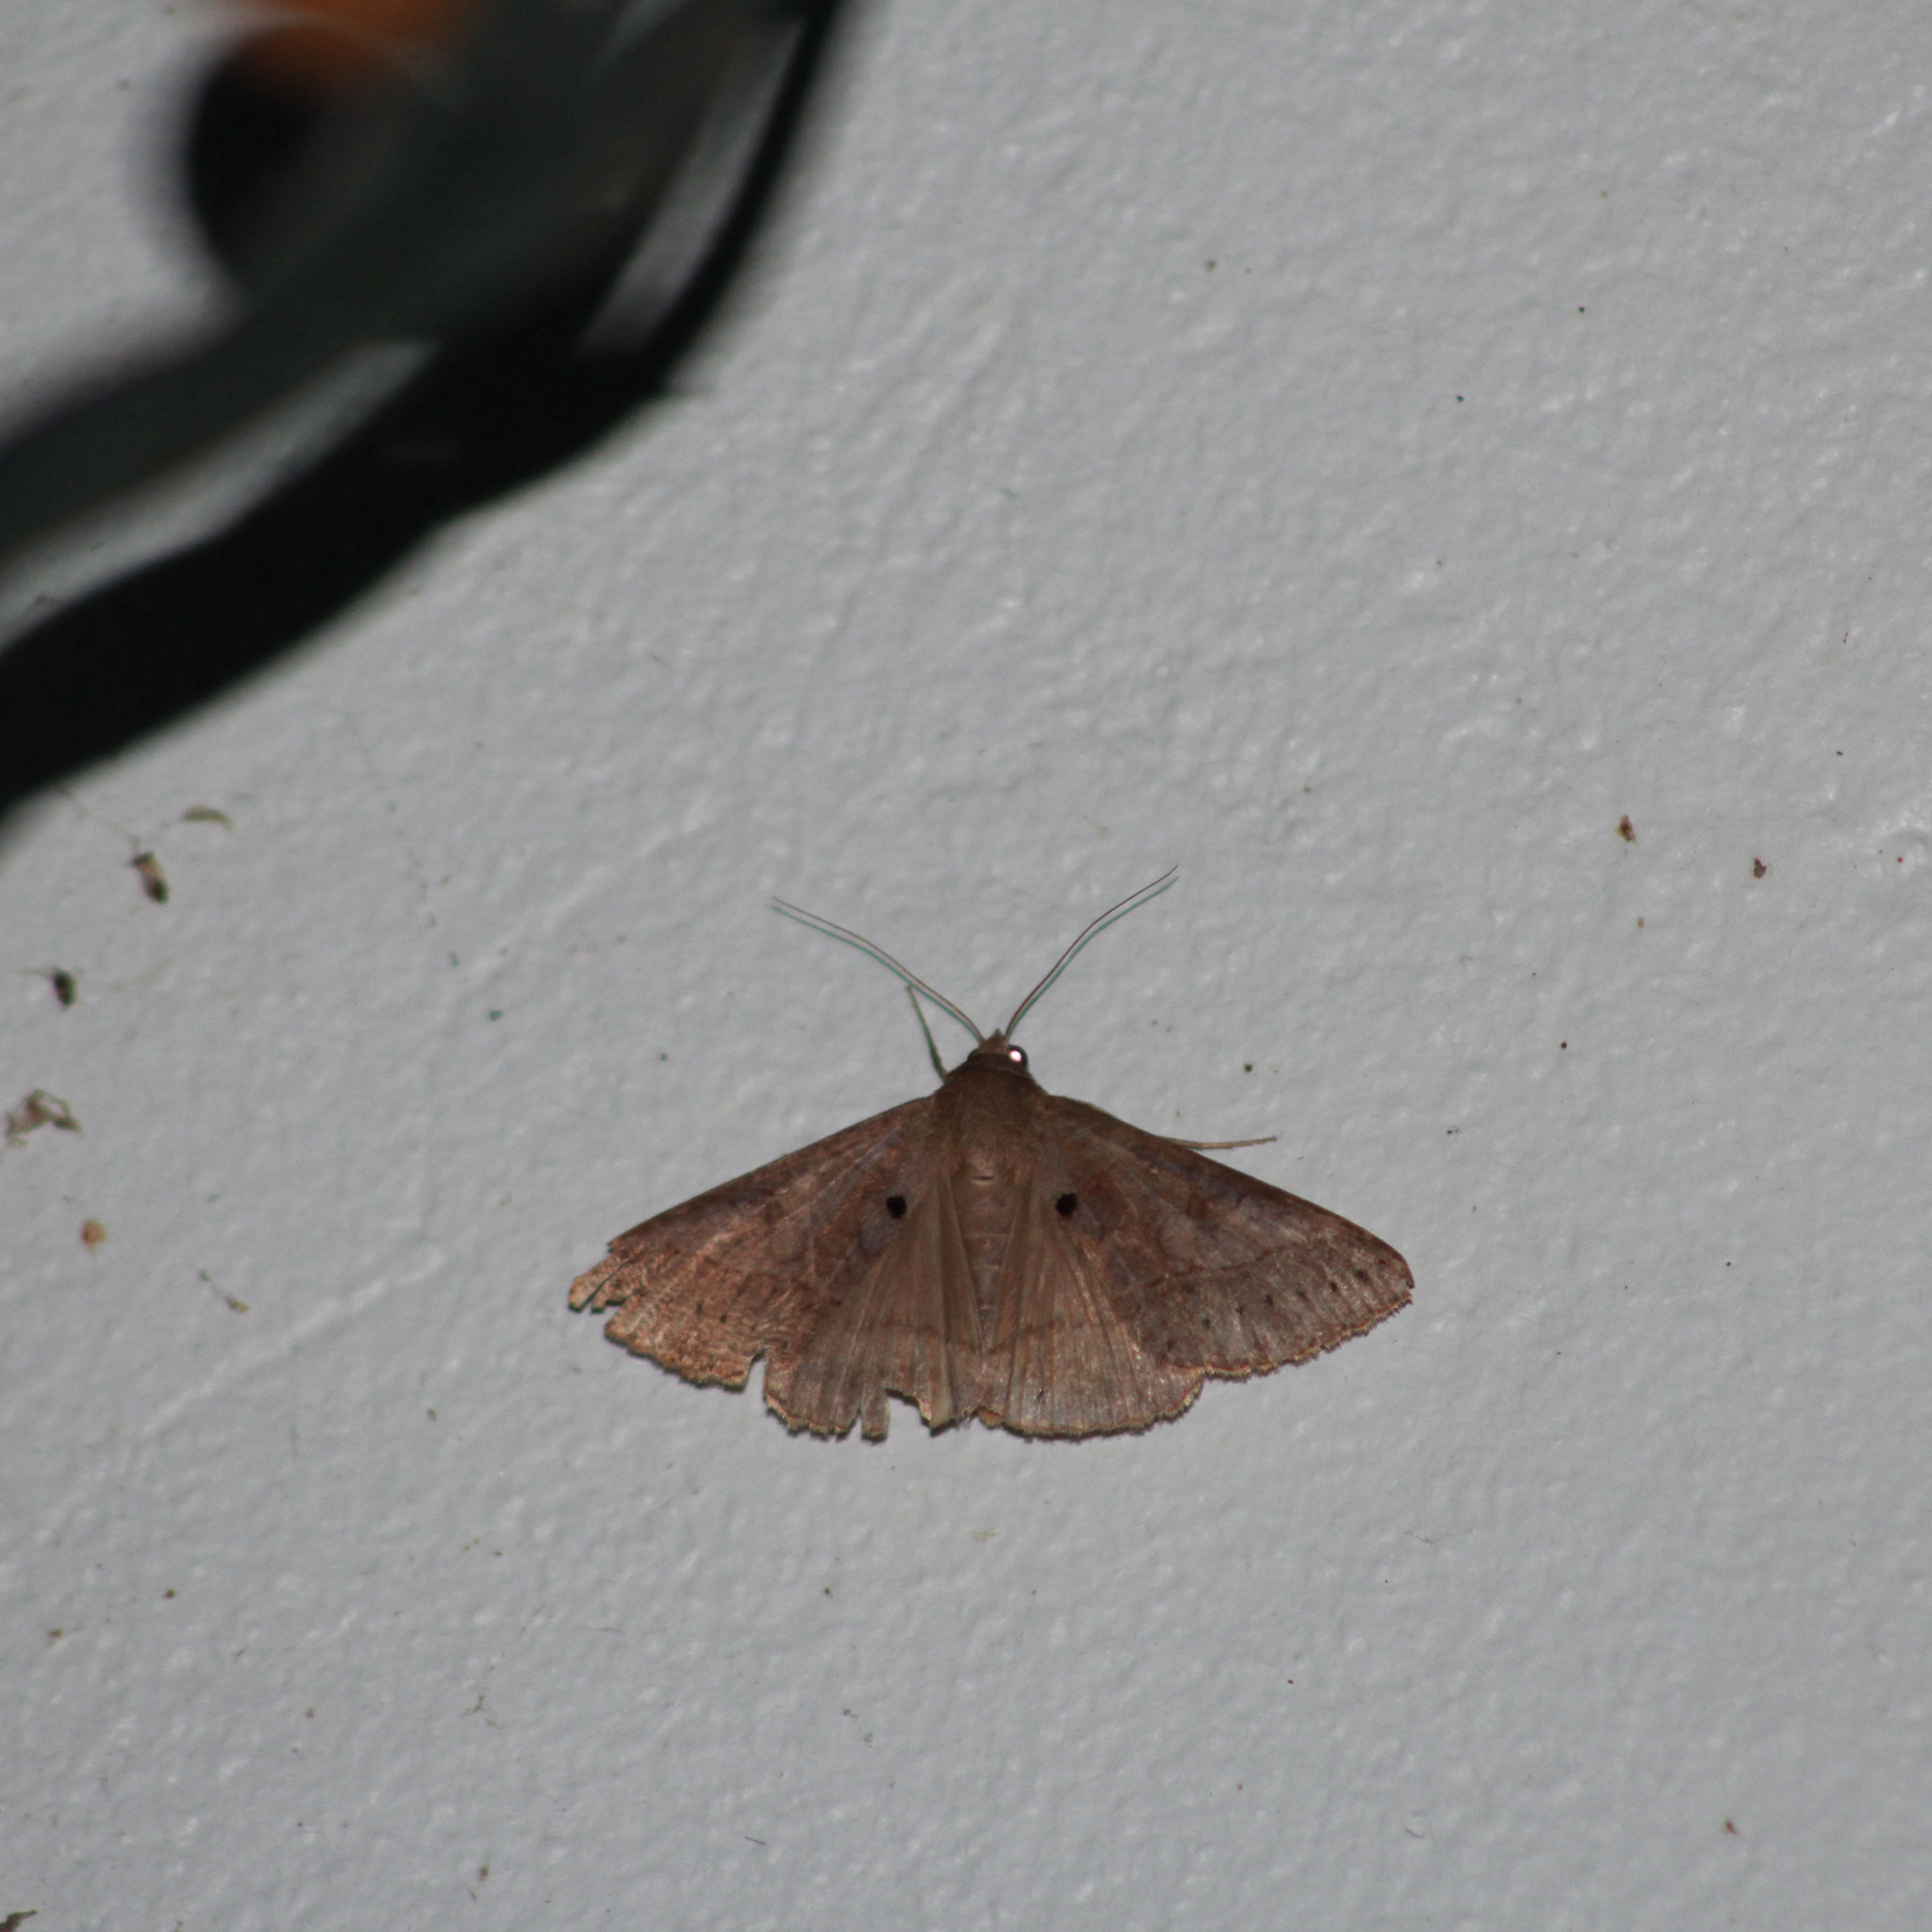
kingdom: Animalia
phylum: Arthropoda
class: Insecta
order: Lepidoptera
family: Erebidae
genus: Mocis
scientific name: Mocis latipes
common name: Striped grass looper
